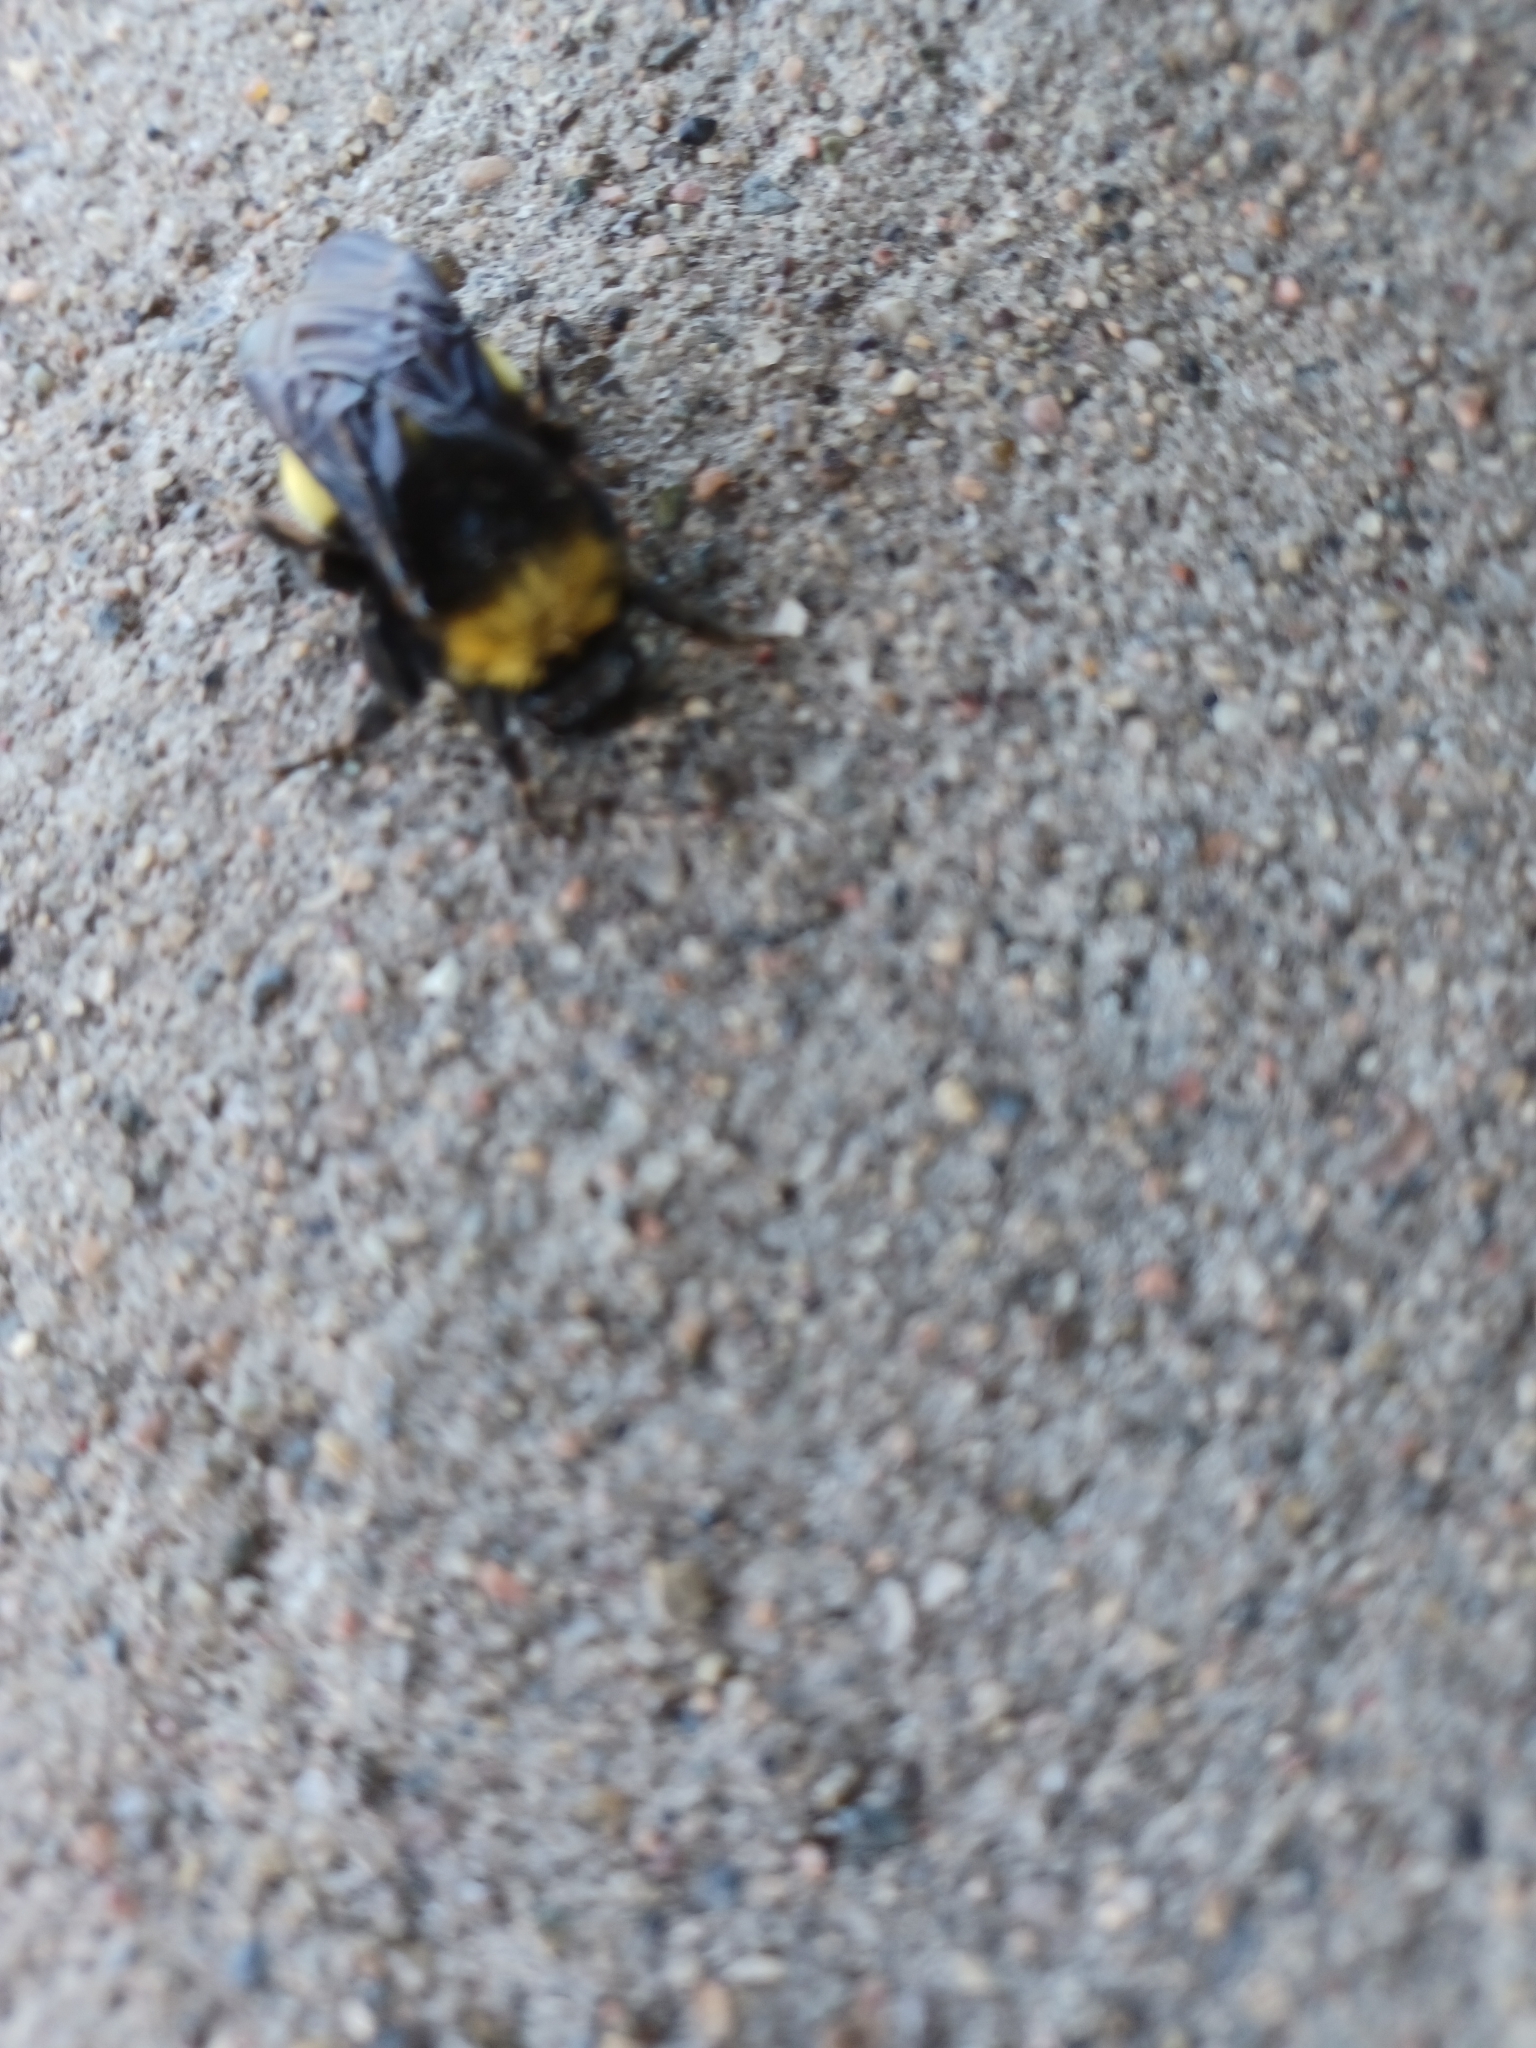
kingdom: Animalia
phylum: Arthropoda
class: Insecta
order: Hymenoptera
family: Apidae
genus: Bombus
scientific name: Bombus pensylvanicus
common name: Bumble bee
